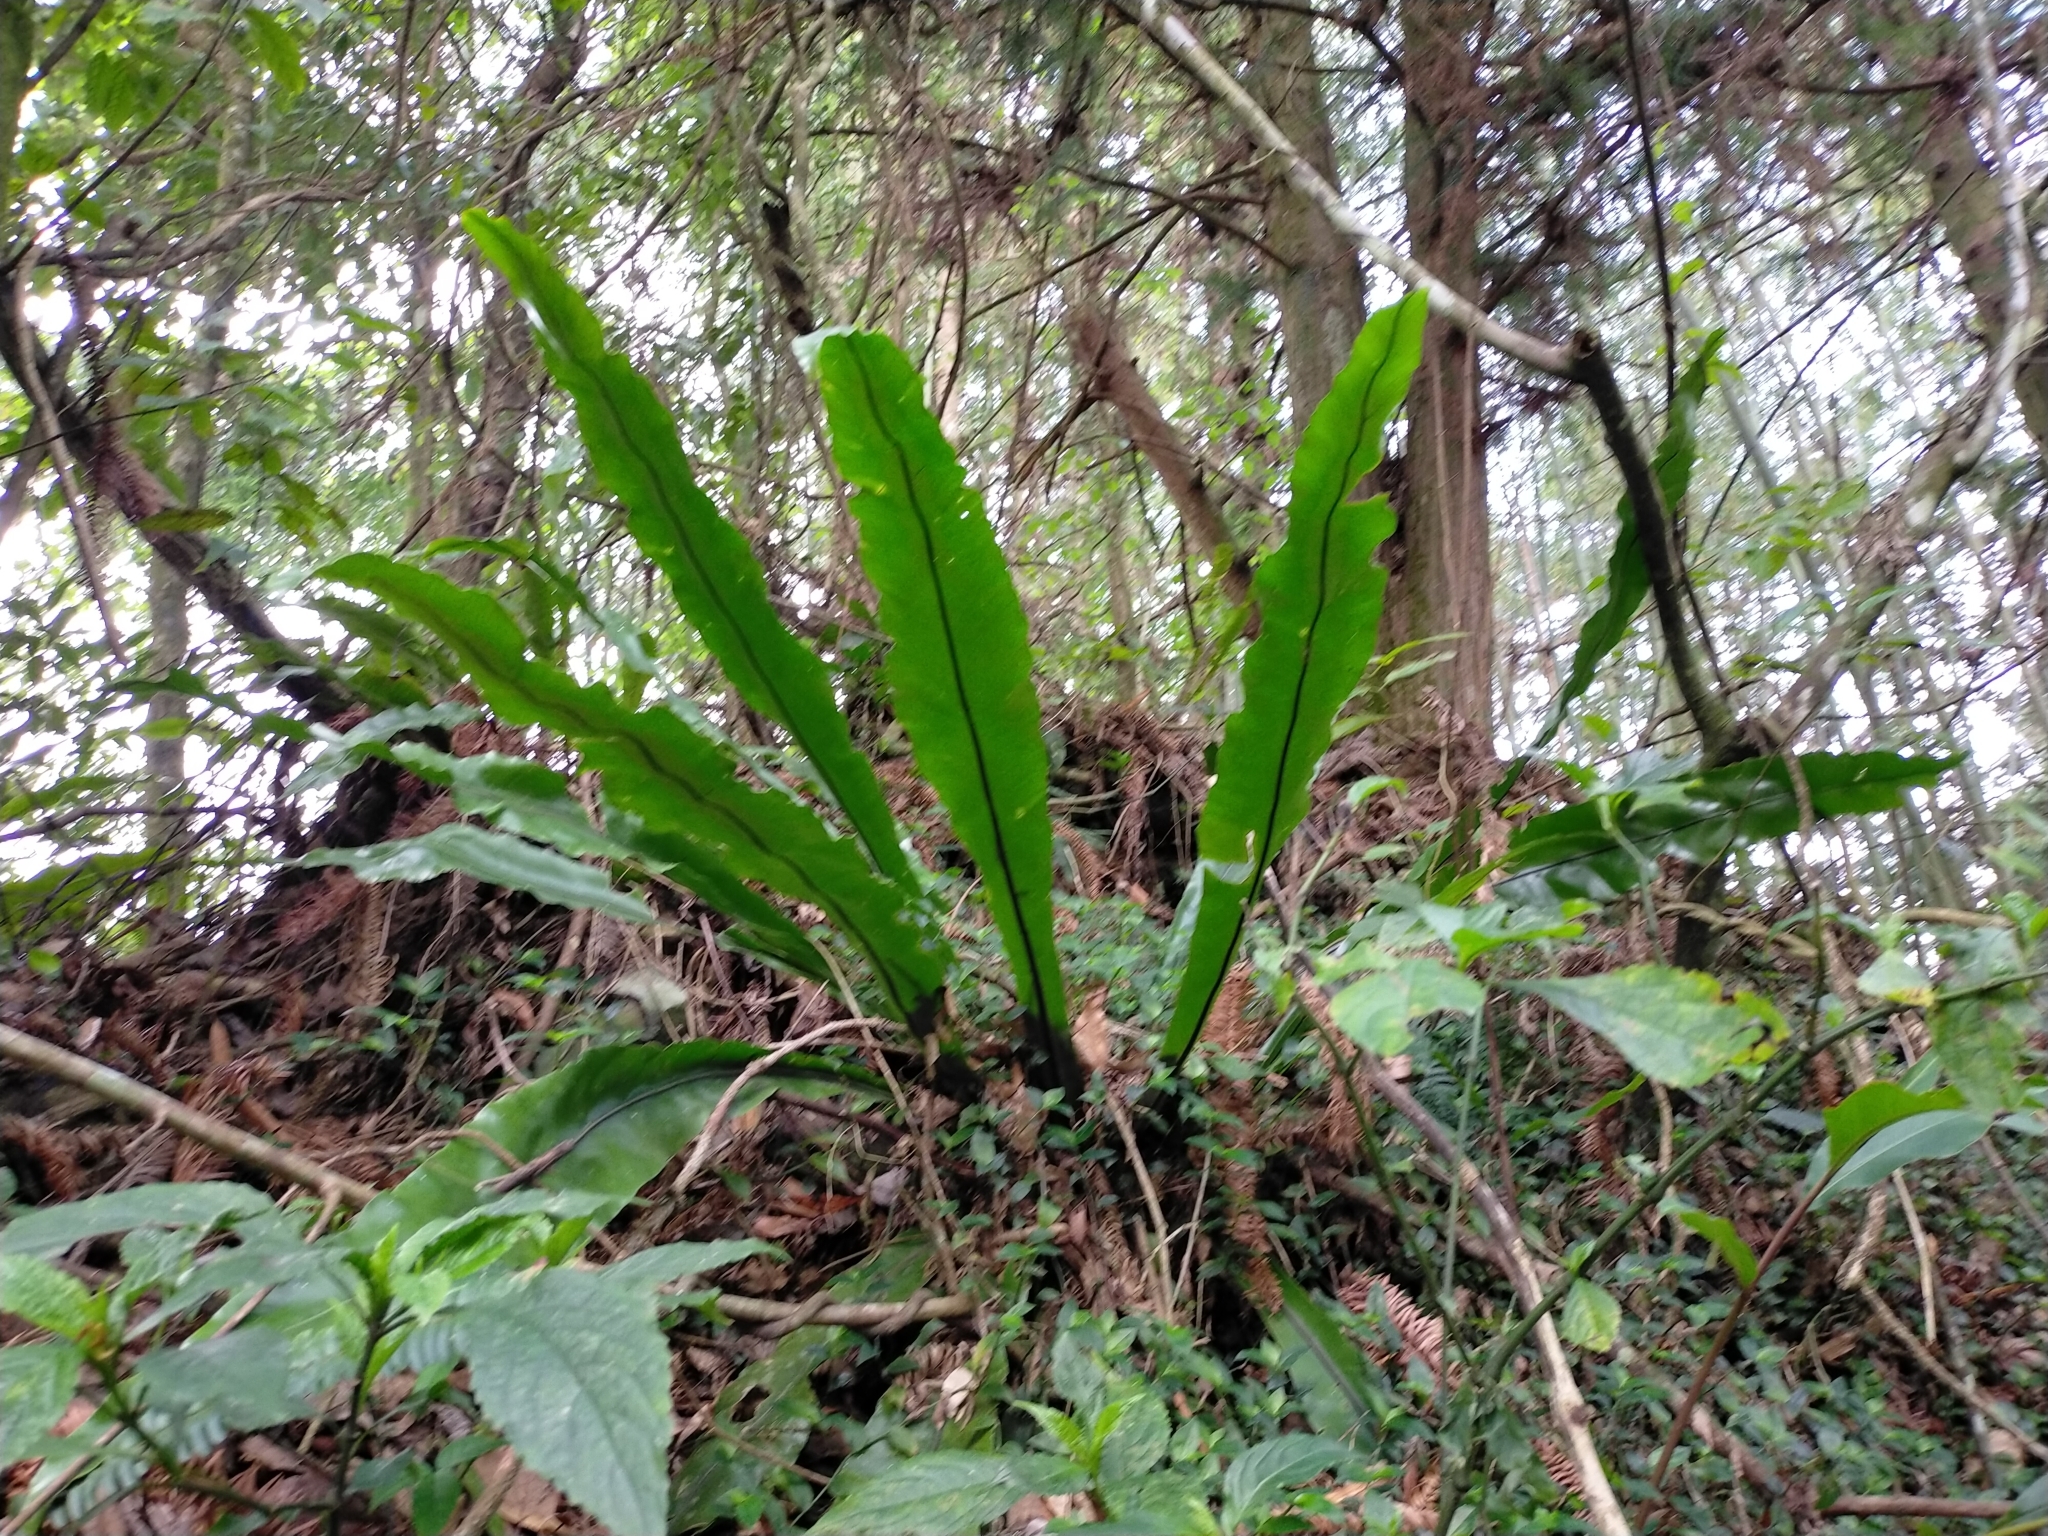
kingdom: Plantae
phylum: Tracheophyta
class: Polypodiopsida
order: Polypodiales
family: Aspleniaceae
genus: Asplenium
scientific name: Asplenium nidus
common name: Bird's-nest fern
